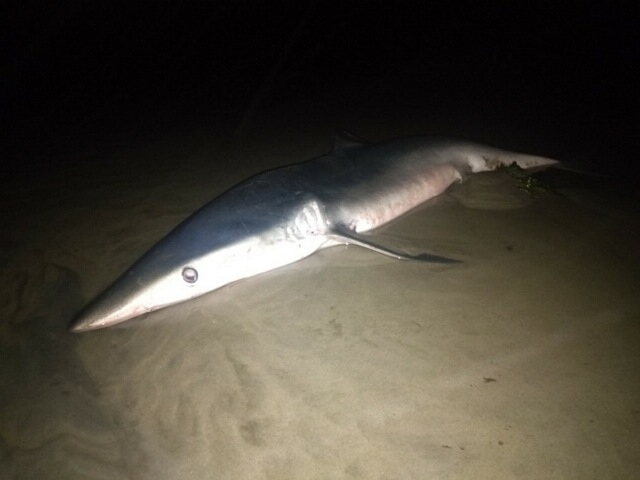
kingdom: Animalia
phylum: Chordata
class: Elasmobranchii
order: Carcharhiniformes
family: Carcharhinidae
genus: Prionace
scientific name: Prionace glauca
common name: Blue shark
